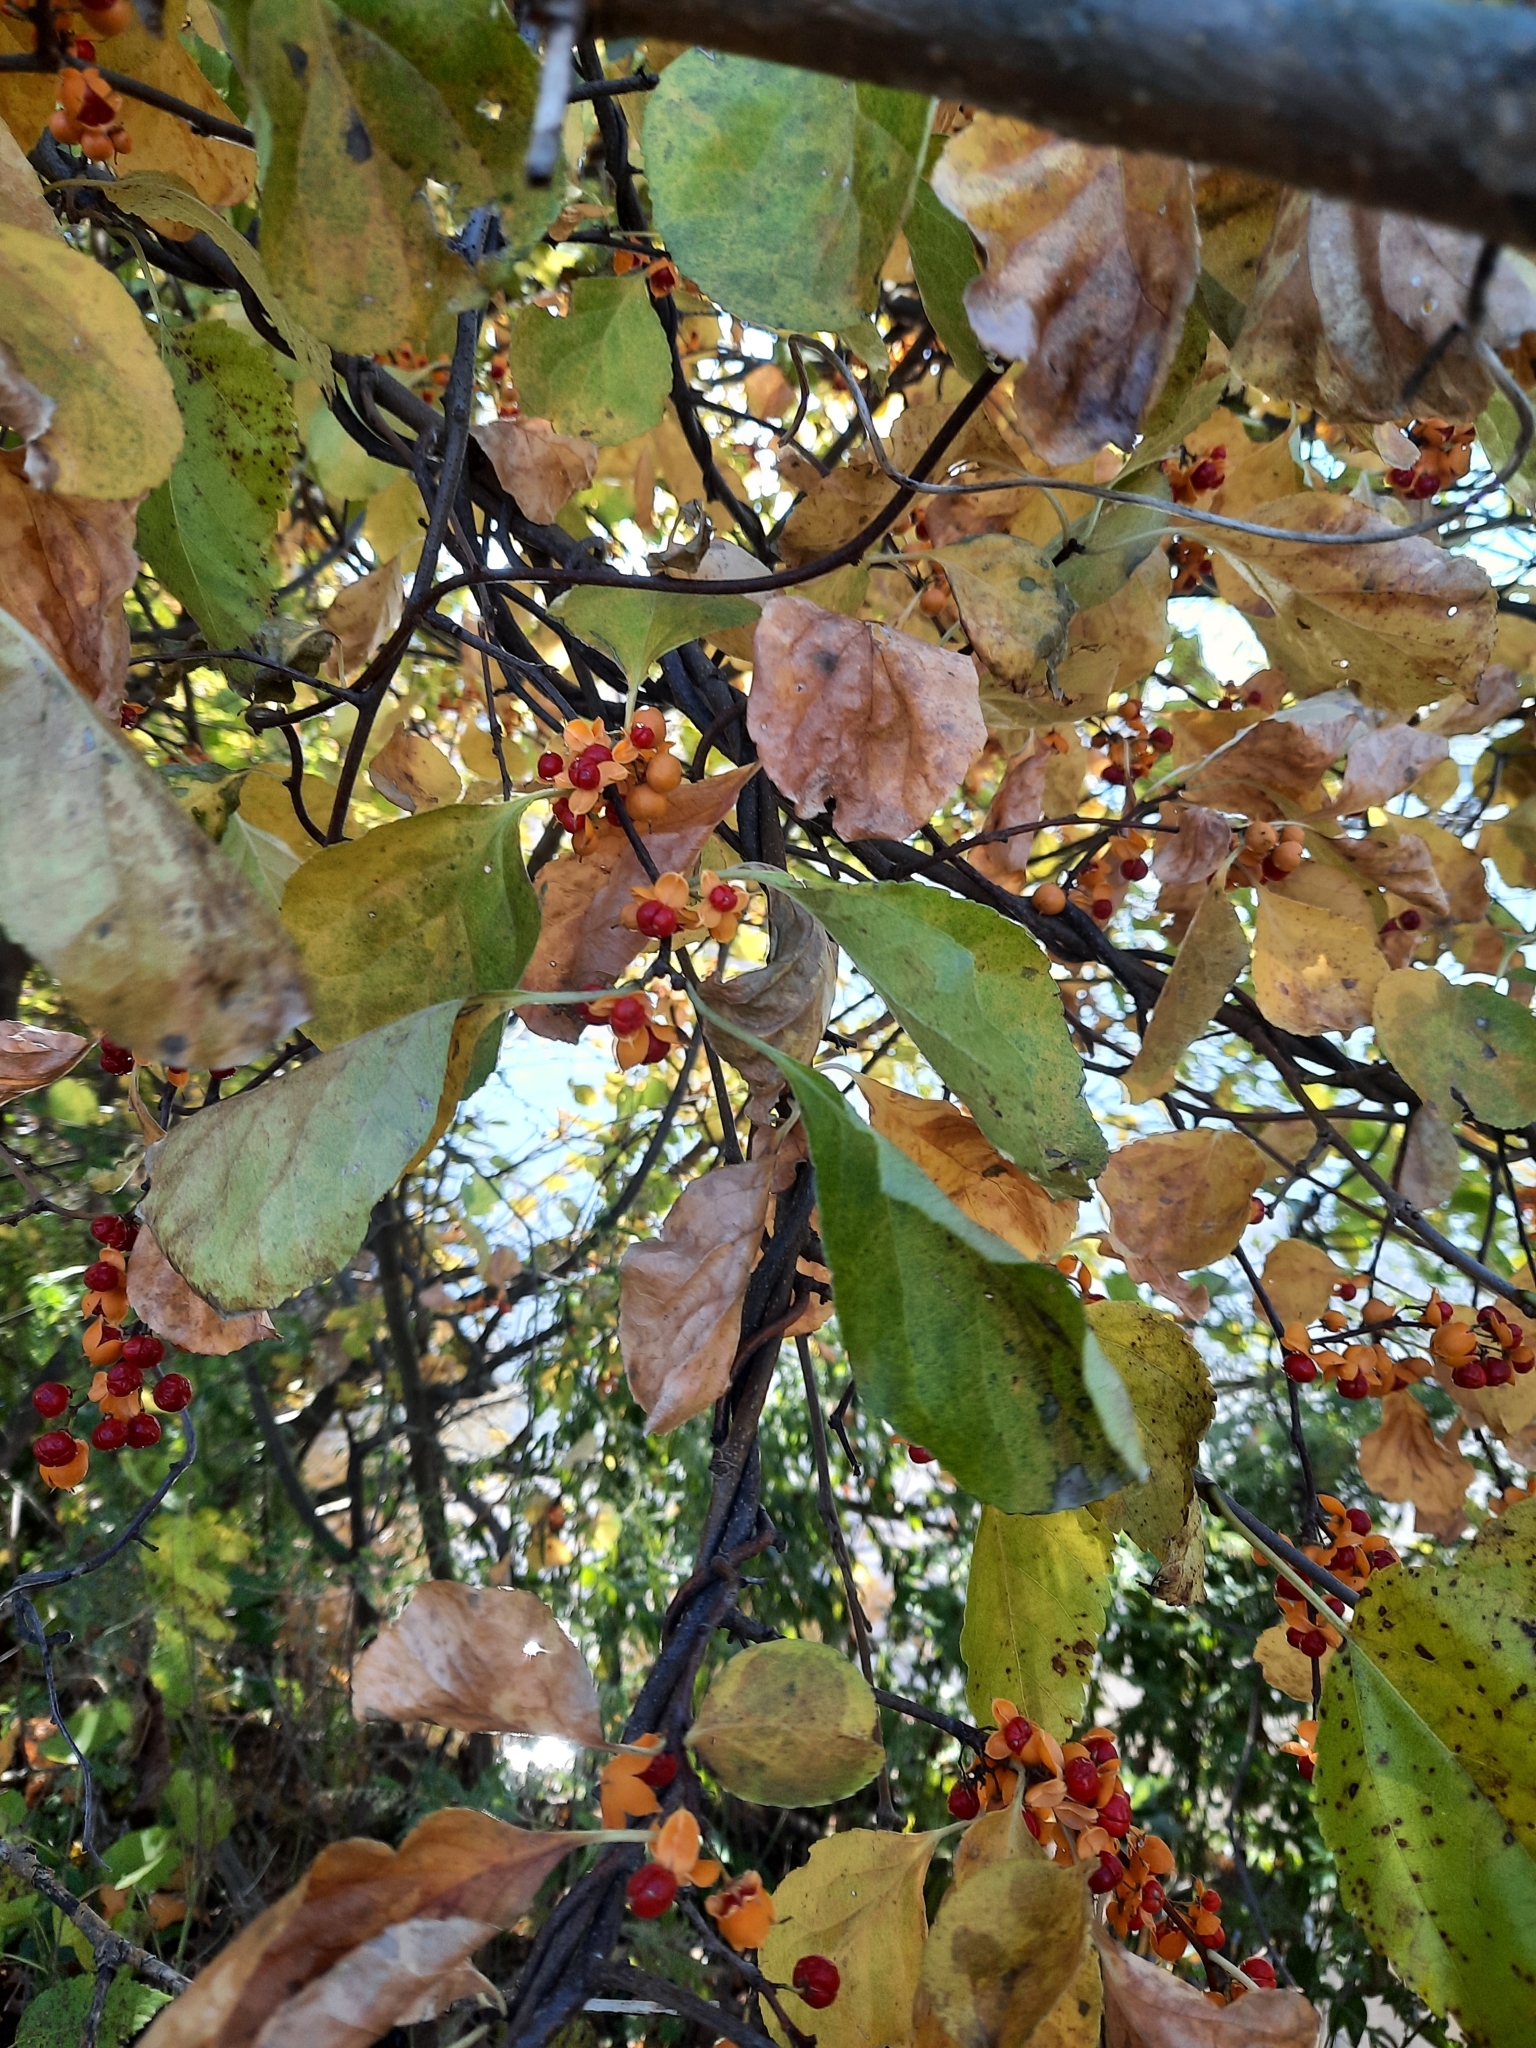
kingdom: Plantae
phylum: Tracheophyta
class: Magnoliopsida
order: Celastrales
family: Celastraceae
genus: Celastrus
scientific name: Celastrus orbiculatus
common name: Oriental bittersweet
